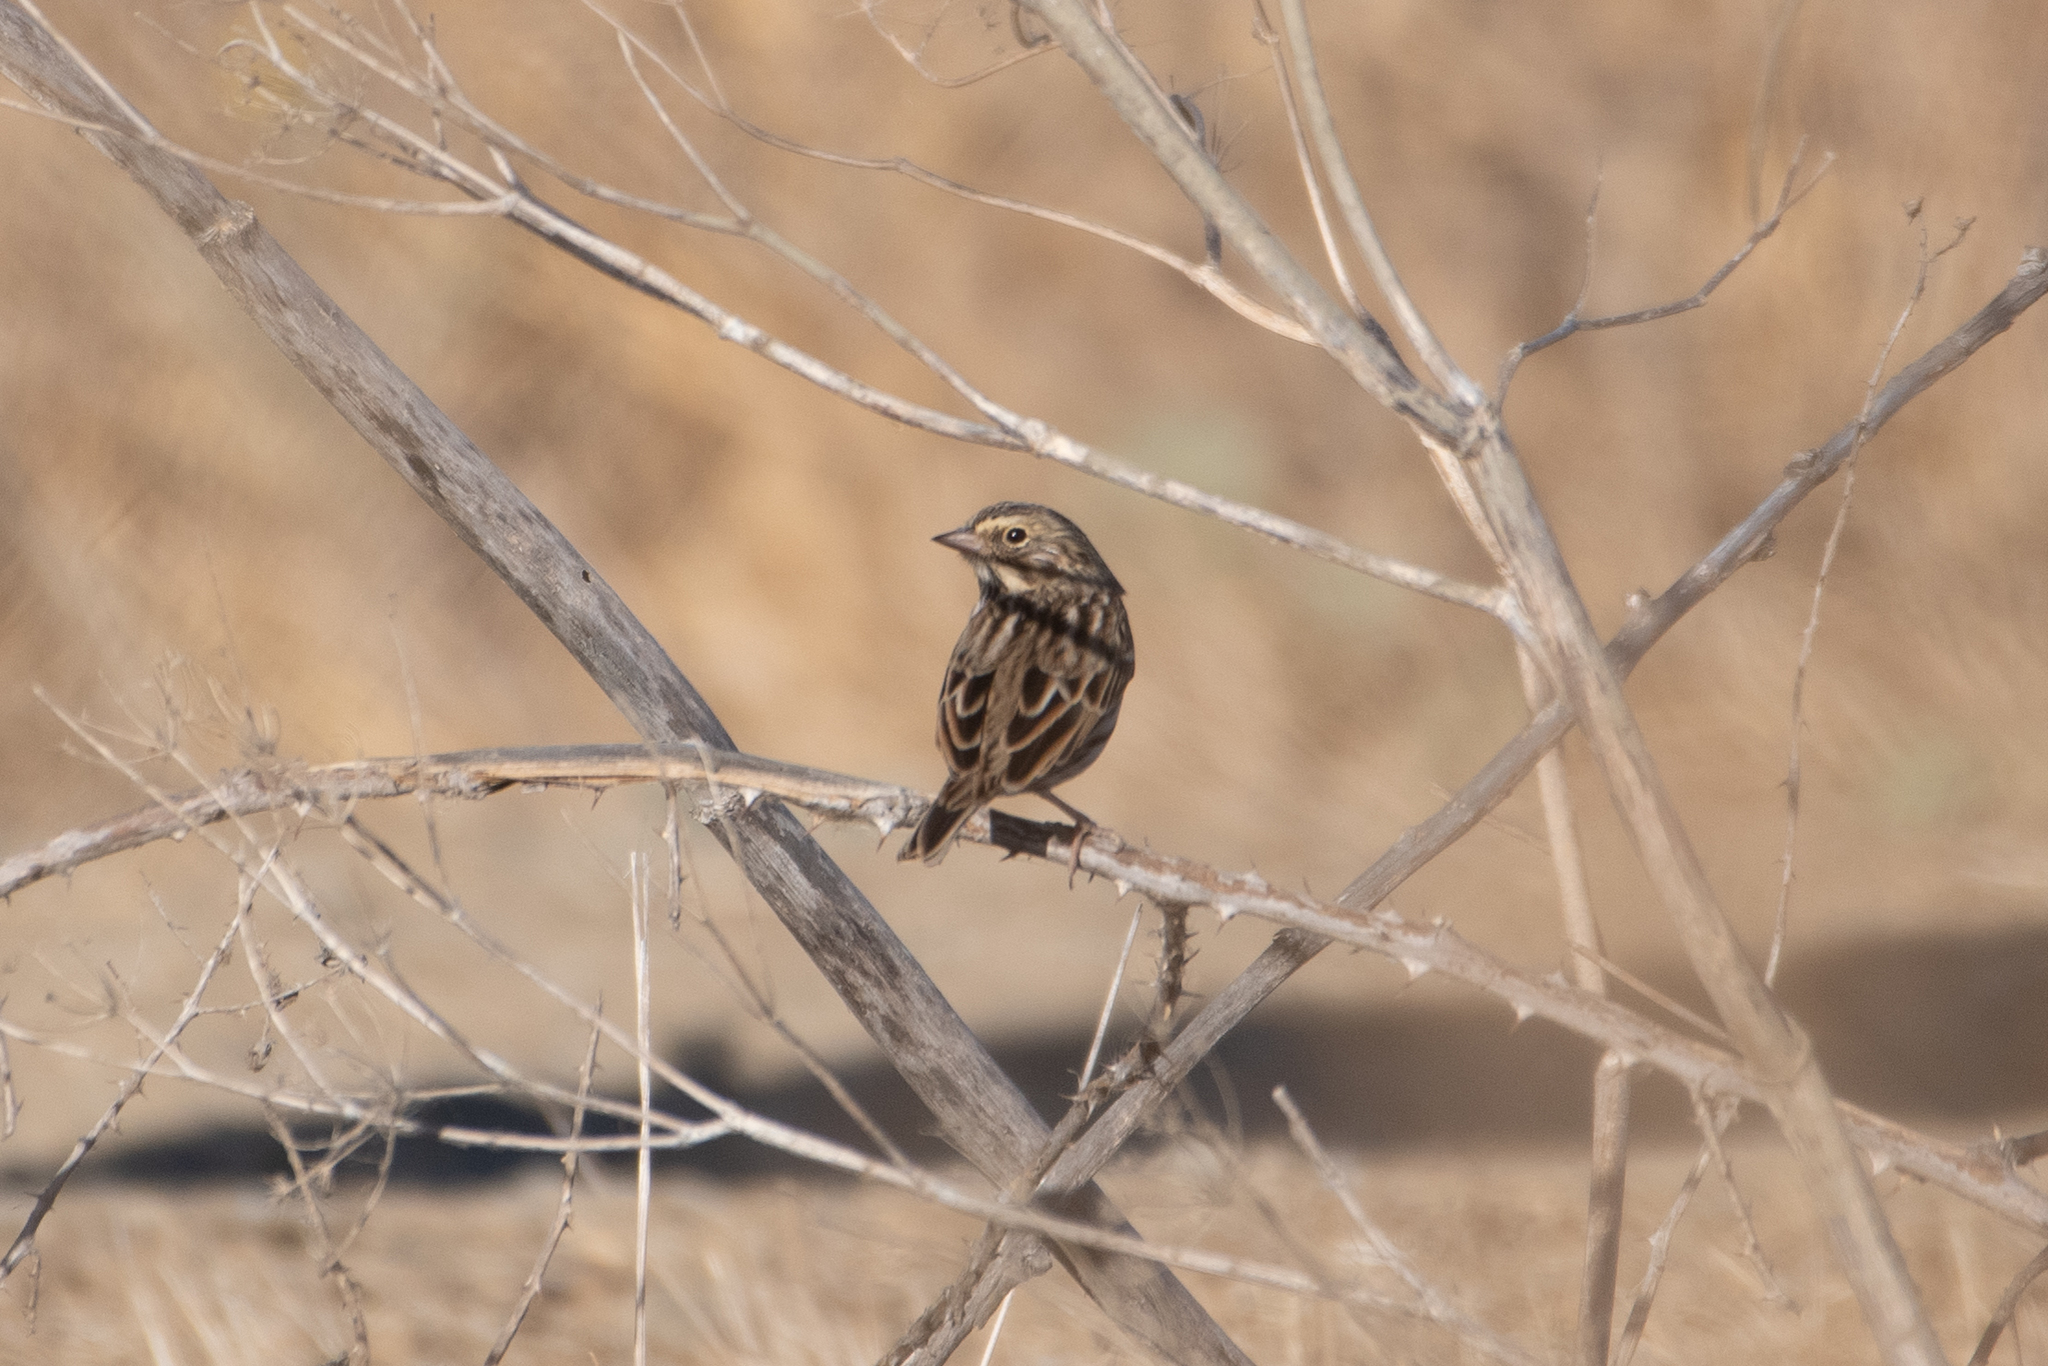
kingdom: Animalia
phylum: Chordata
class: Aves
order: Passeriformes
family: Passerellidae
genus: Passerculus
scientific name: Passerculus sandwichensis
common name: Savannah sparrow
